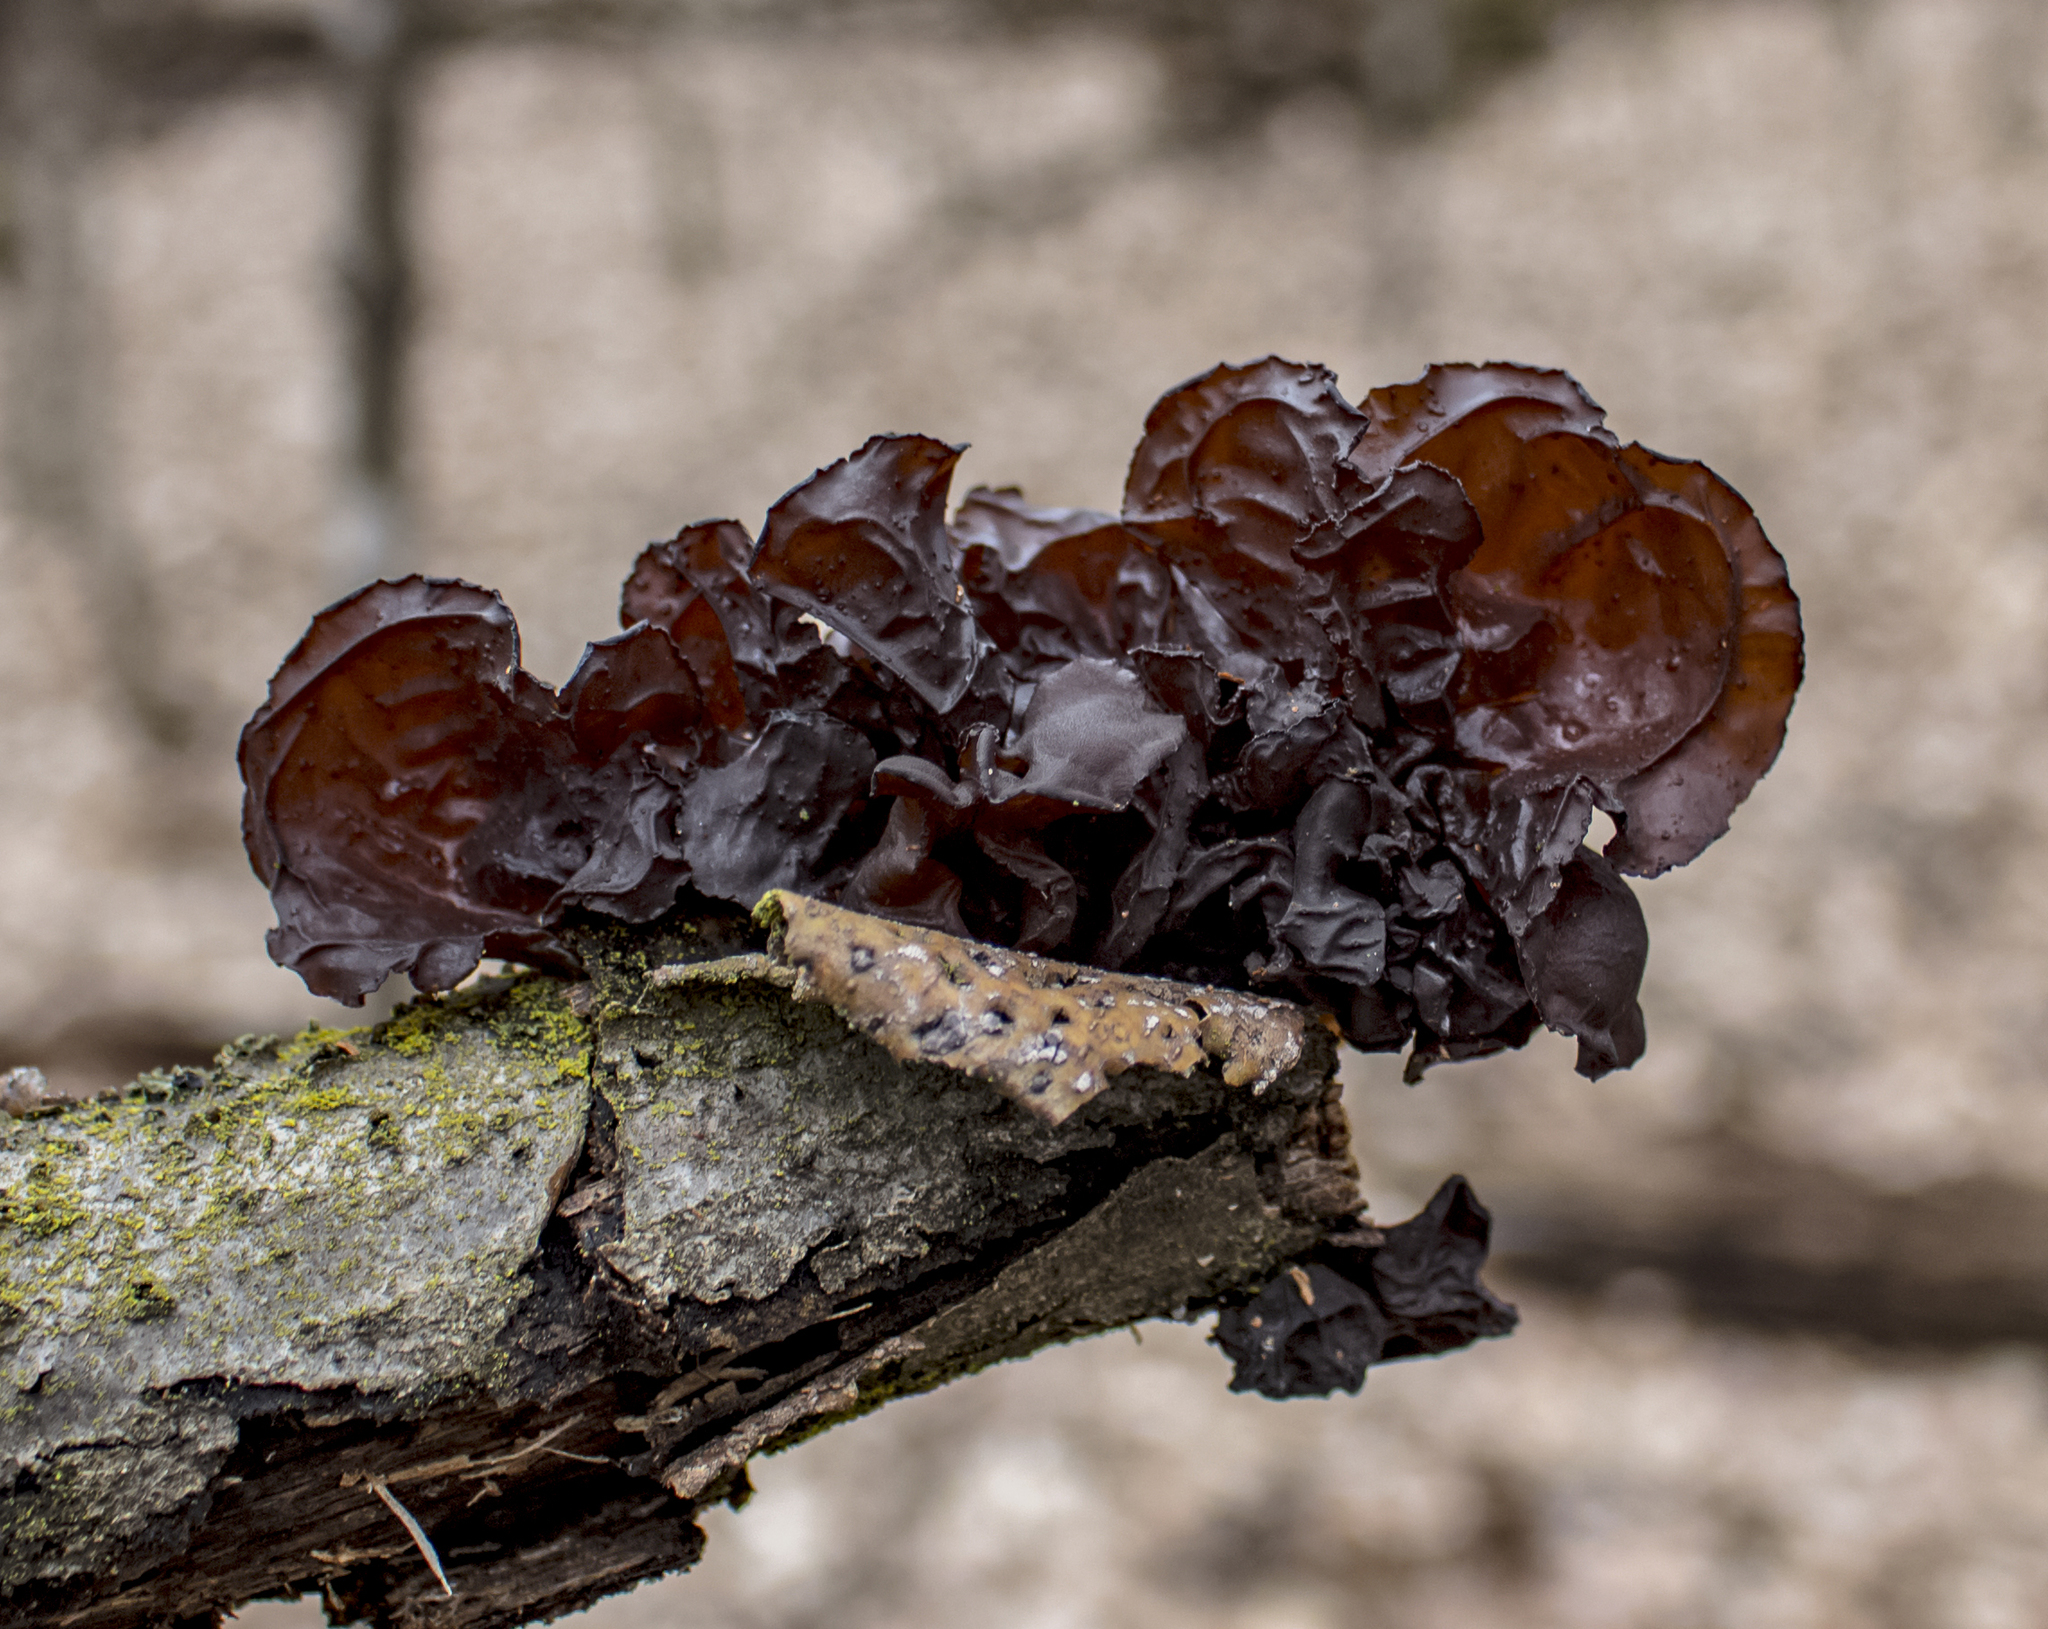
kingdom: Fungi
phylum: Basidiomycota
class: Agaricomycetes
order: Auriculariales
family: Auriculariaceae
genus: Exidia
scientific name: Exidia
